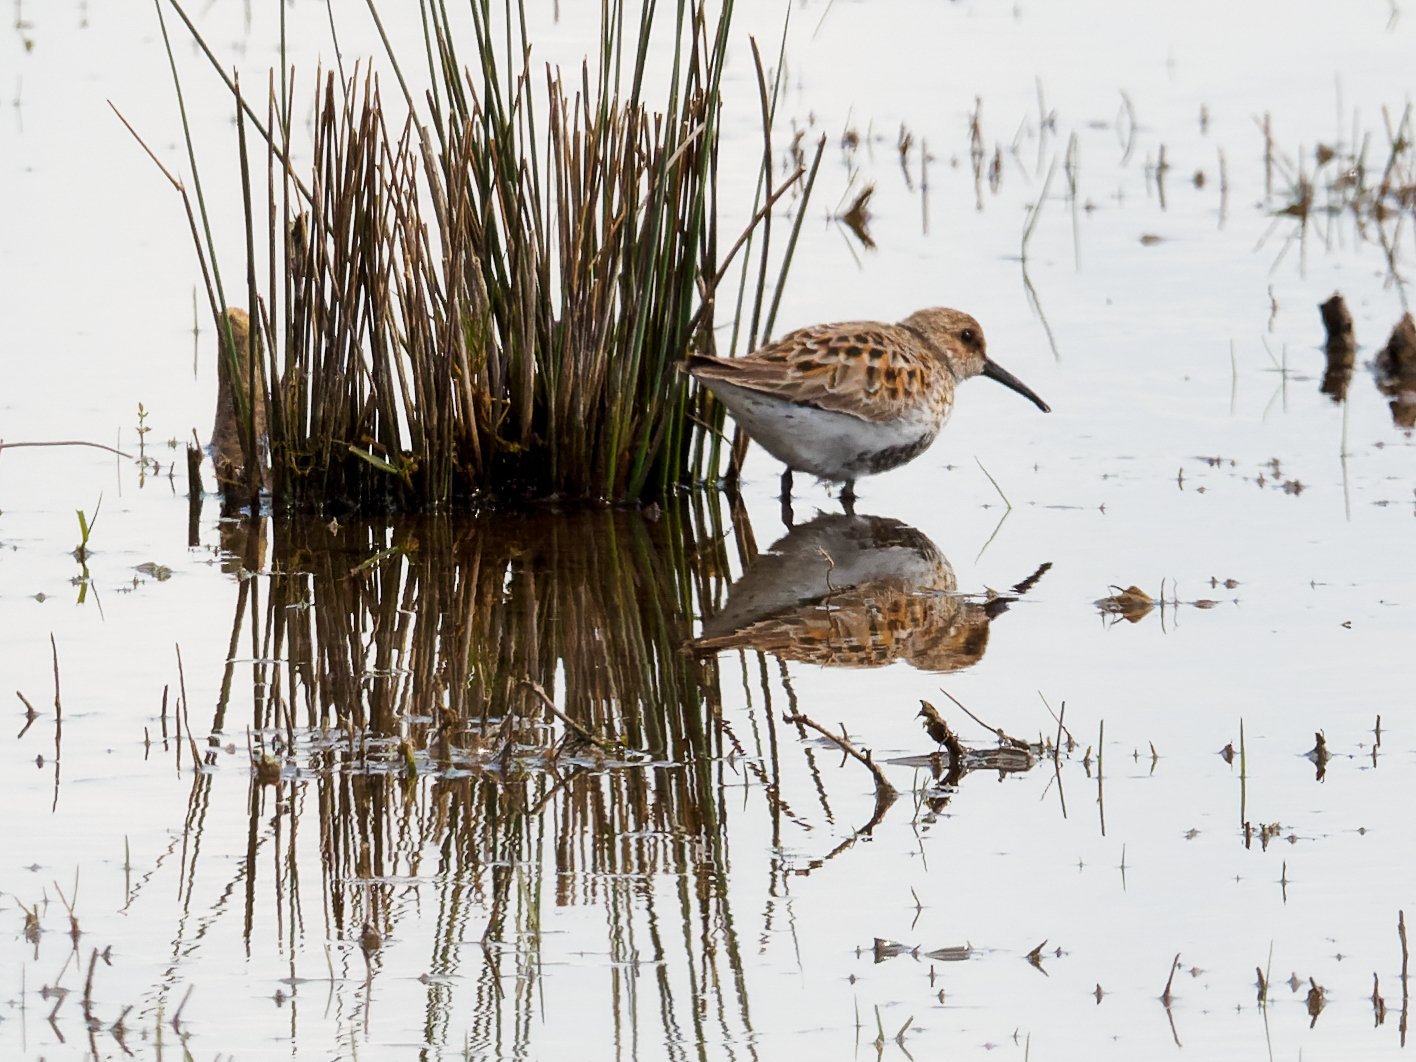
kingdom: Animalia
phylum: Chordata
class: Aves
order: Charadriiformes
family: Scolopacidae
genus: Calidris
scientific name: Calidris alpina
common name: Dunlin
